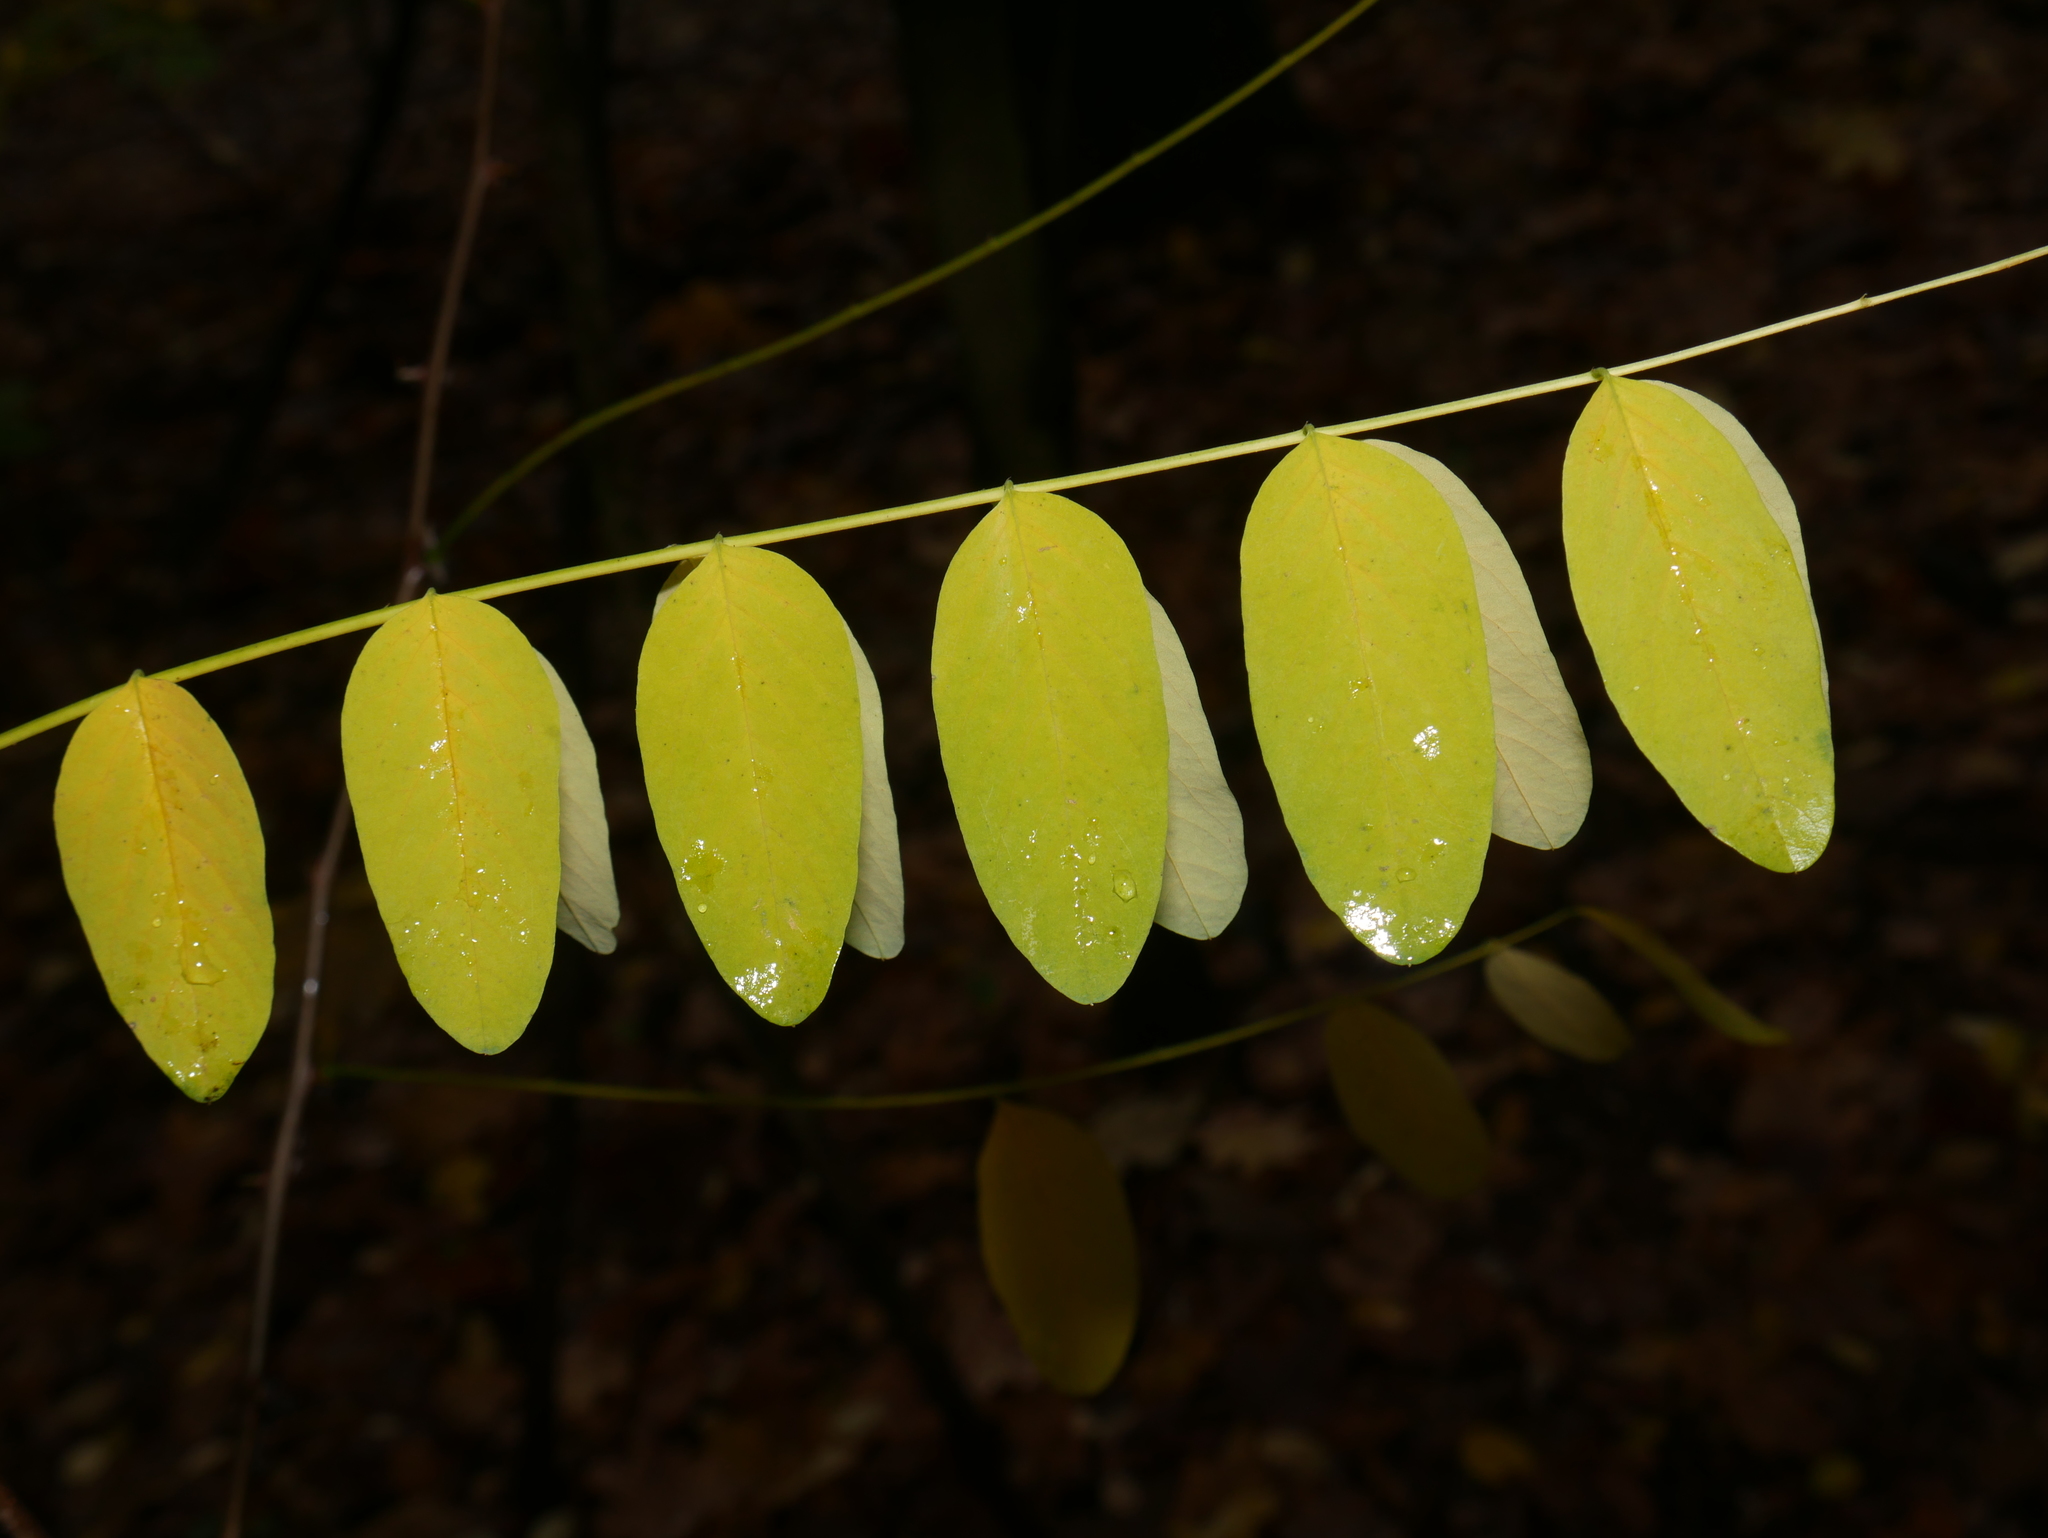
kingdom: Plantae
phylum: Tracheophyta
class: Magnoliopsida
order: Fabales
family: Fabaceae
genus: Robinia
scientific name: Robinia pseudoacacia
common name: Black locust
